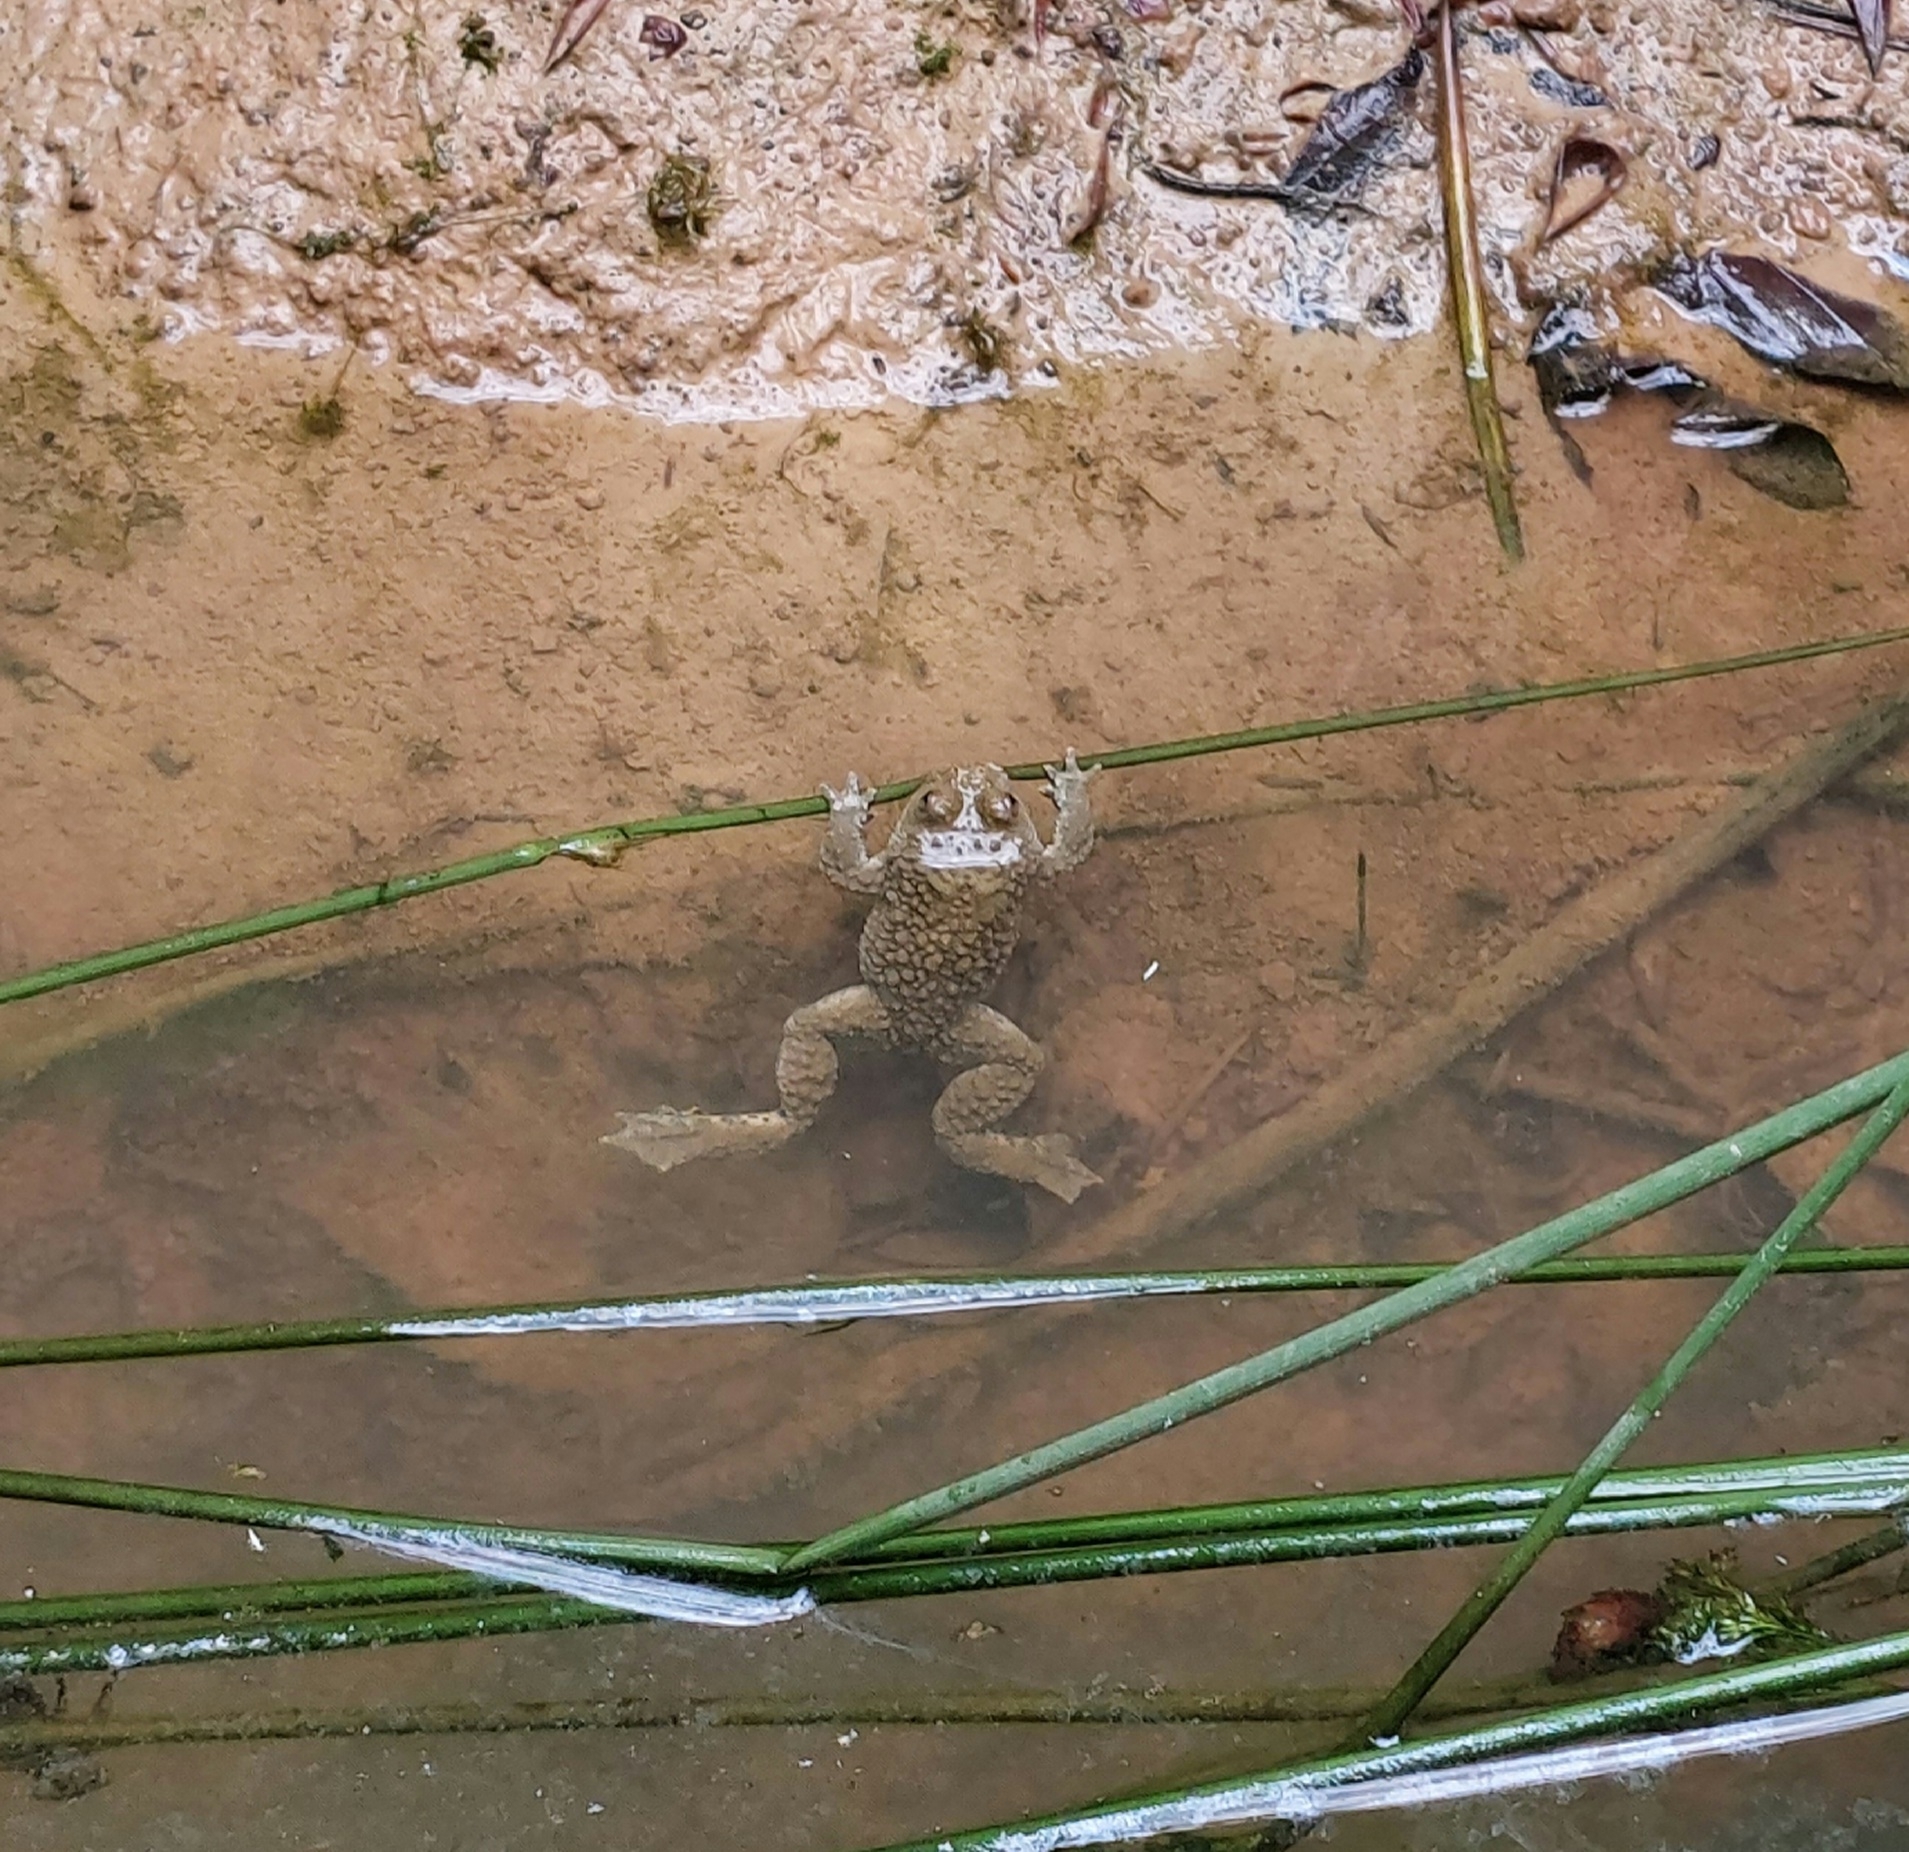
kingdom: Animalia
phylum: Chordata
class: Amphibia
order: Anura
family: Bombinatoridae
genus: Bombina
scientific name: Bombina variegata
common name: Yellow-bellied toad
